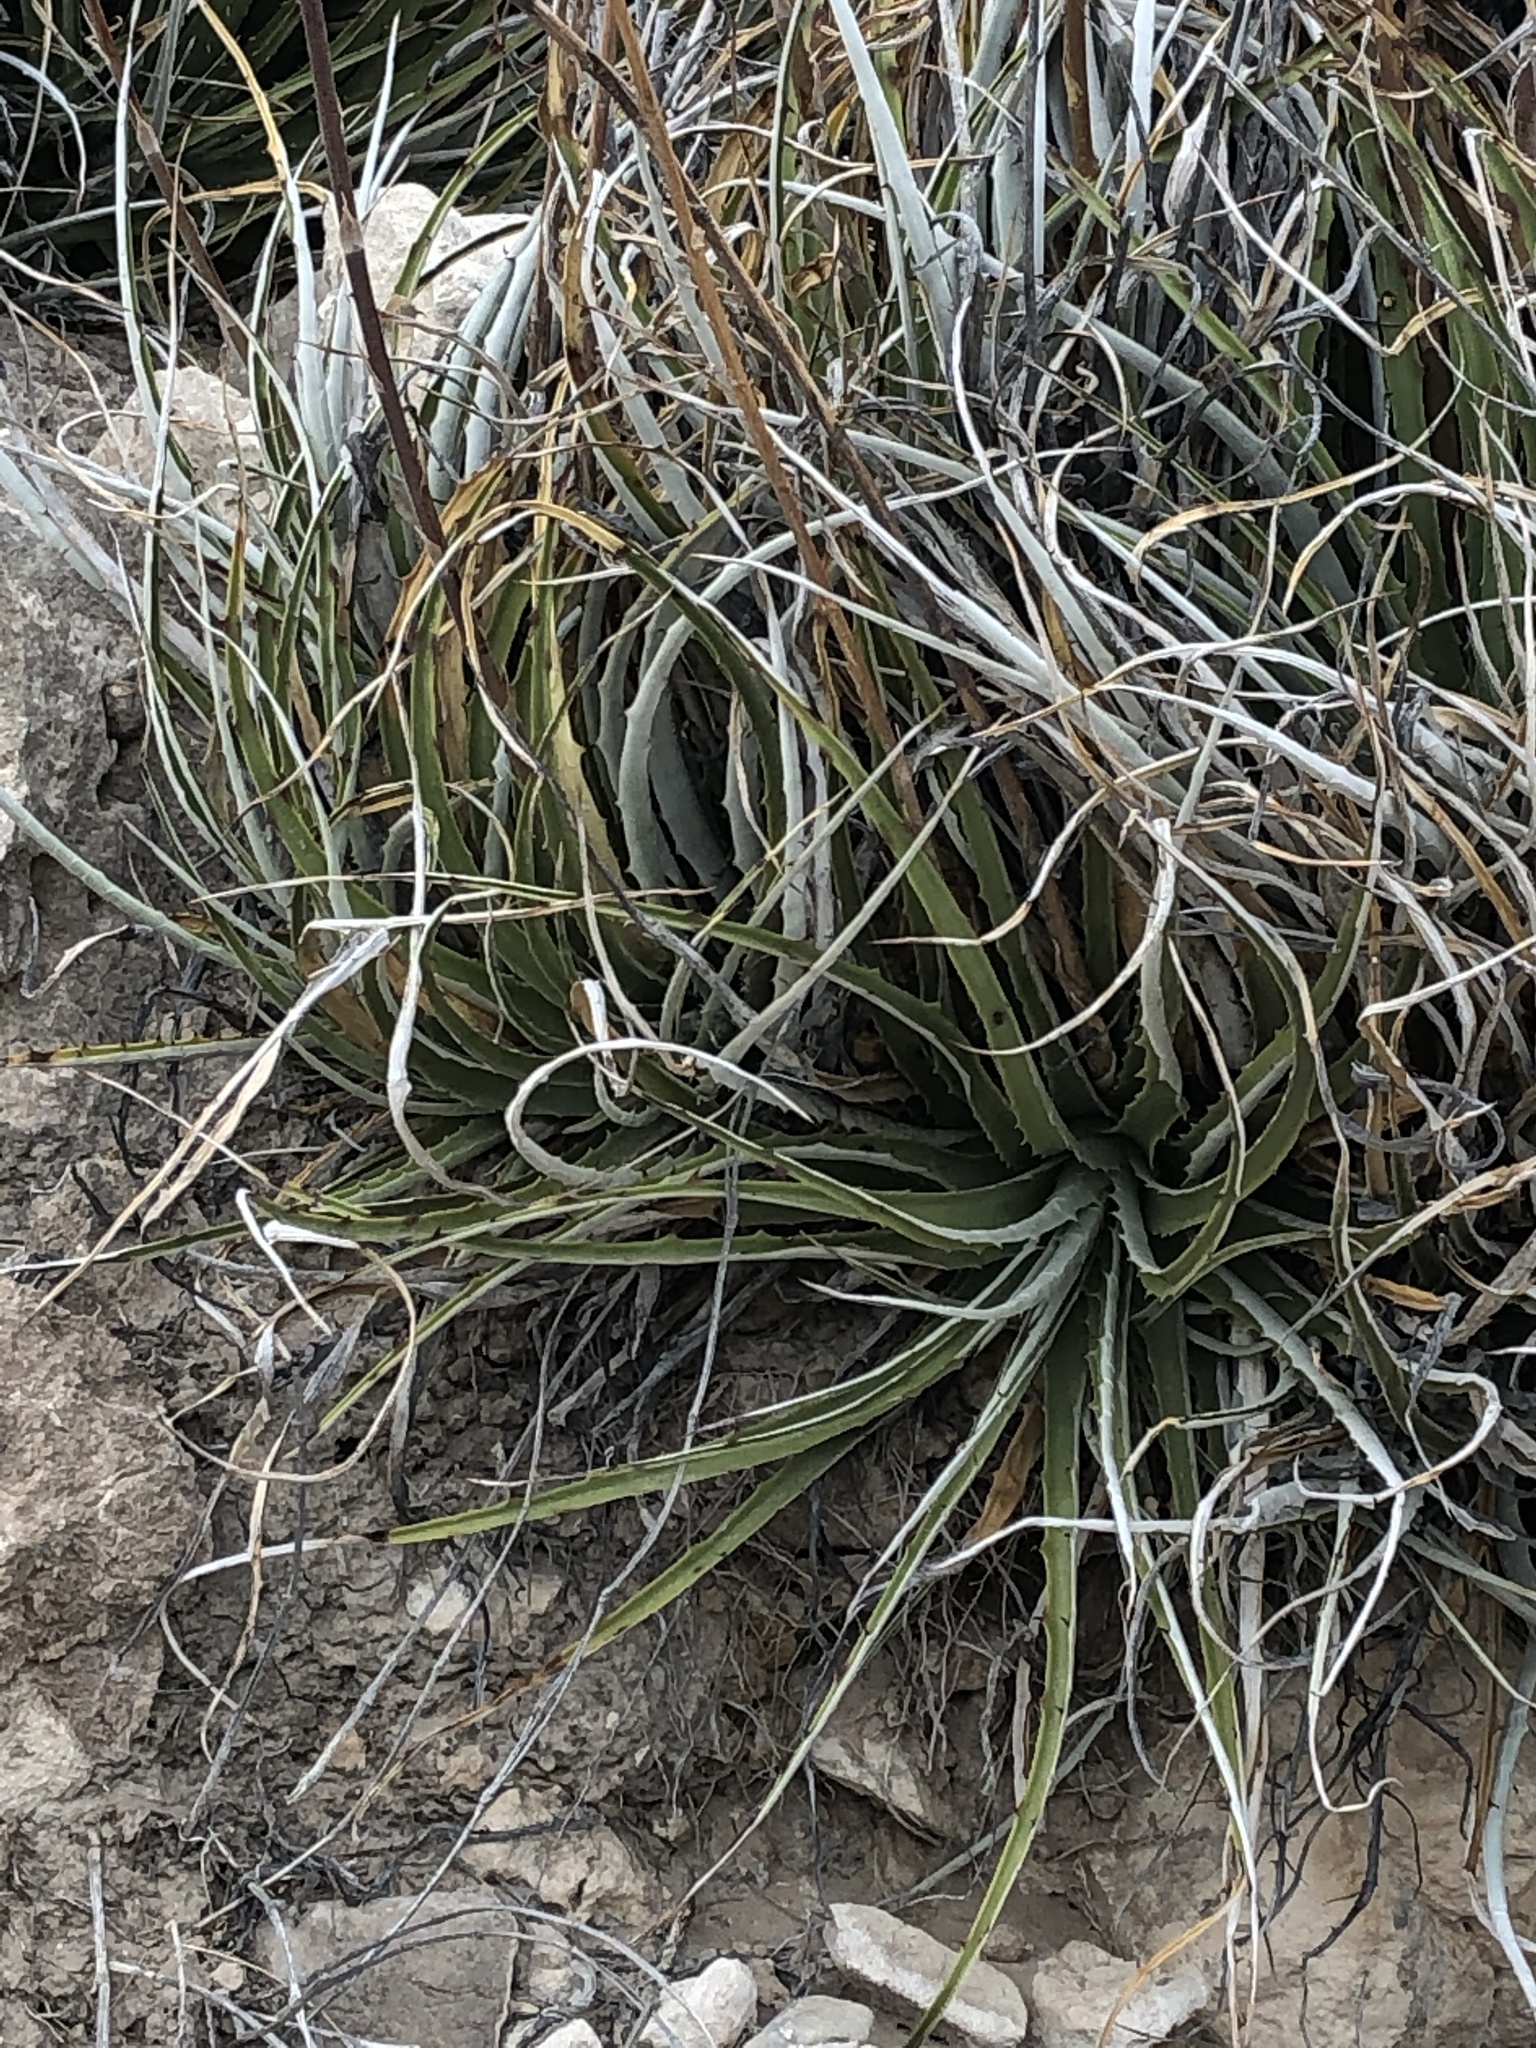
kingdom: Plantae
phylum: Tracheophyta
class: Liliopsida
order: Poales
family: Bromeliaceae
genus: Hechtia
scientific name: Hechtia texensis
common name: False agave
